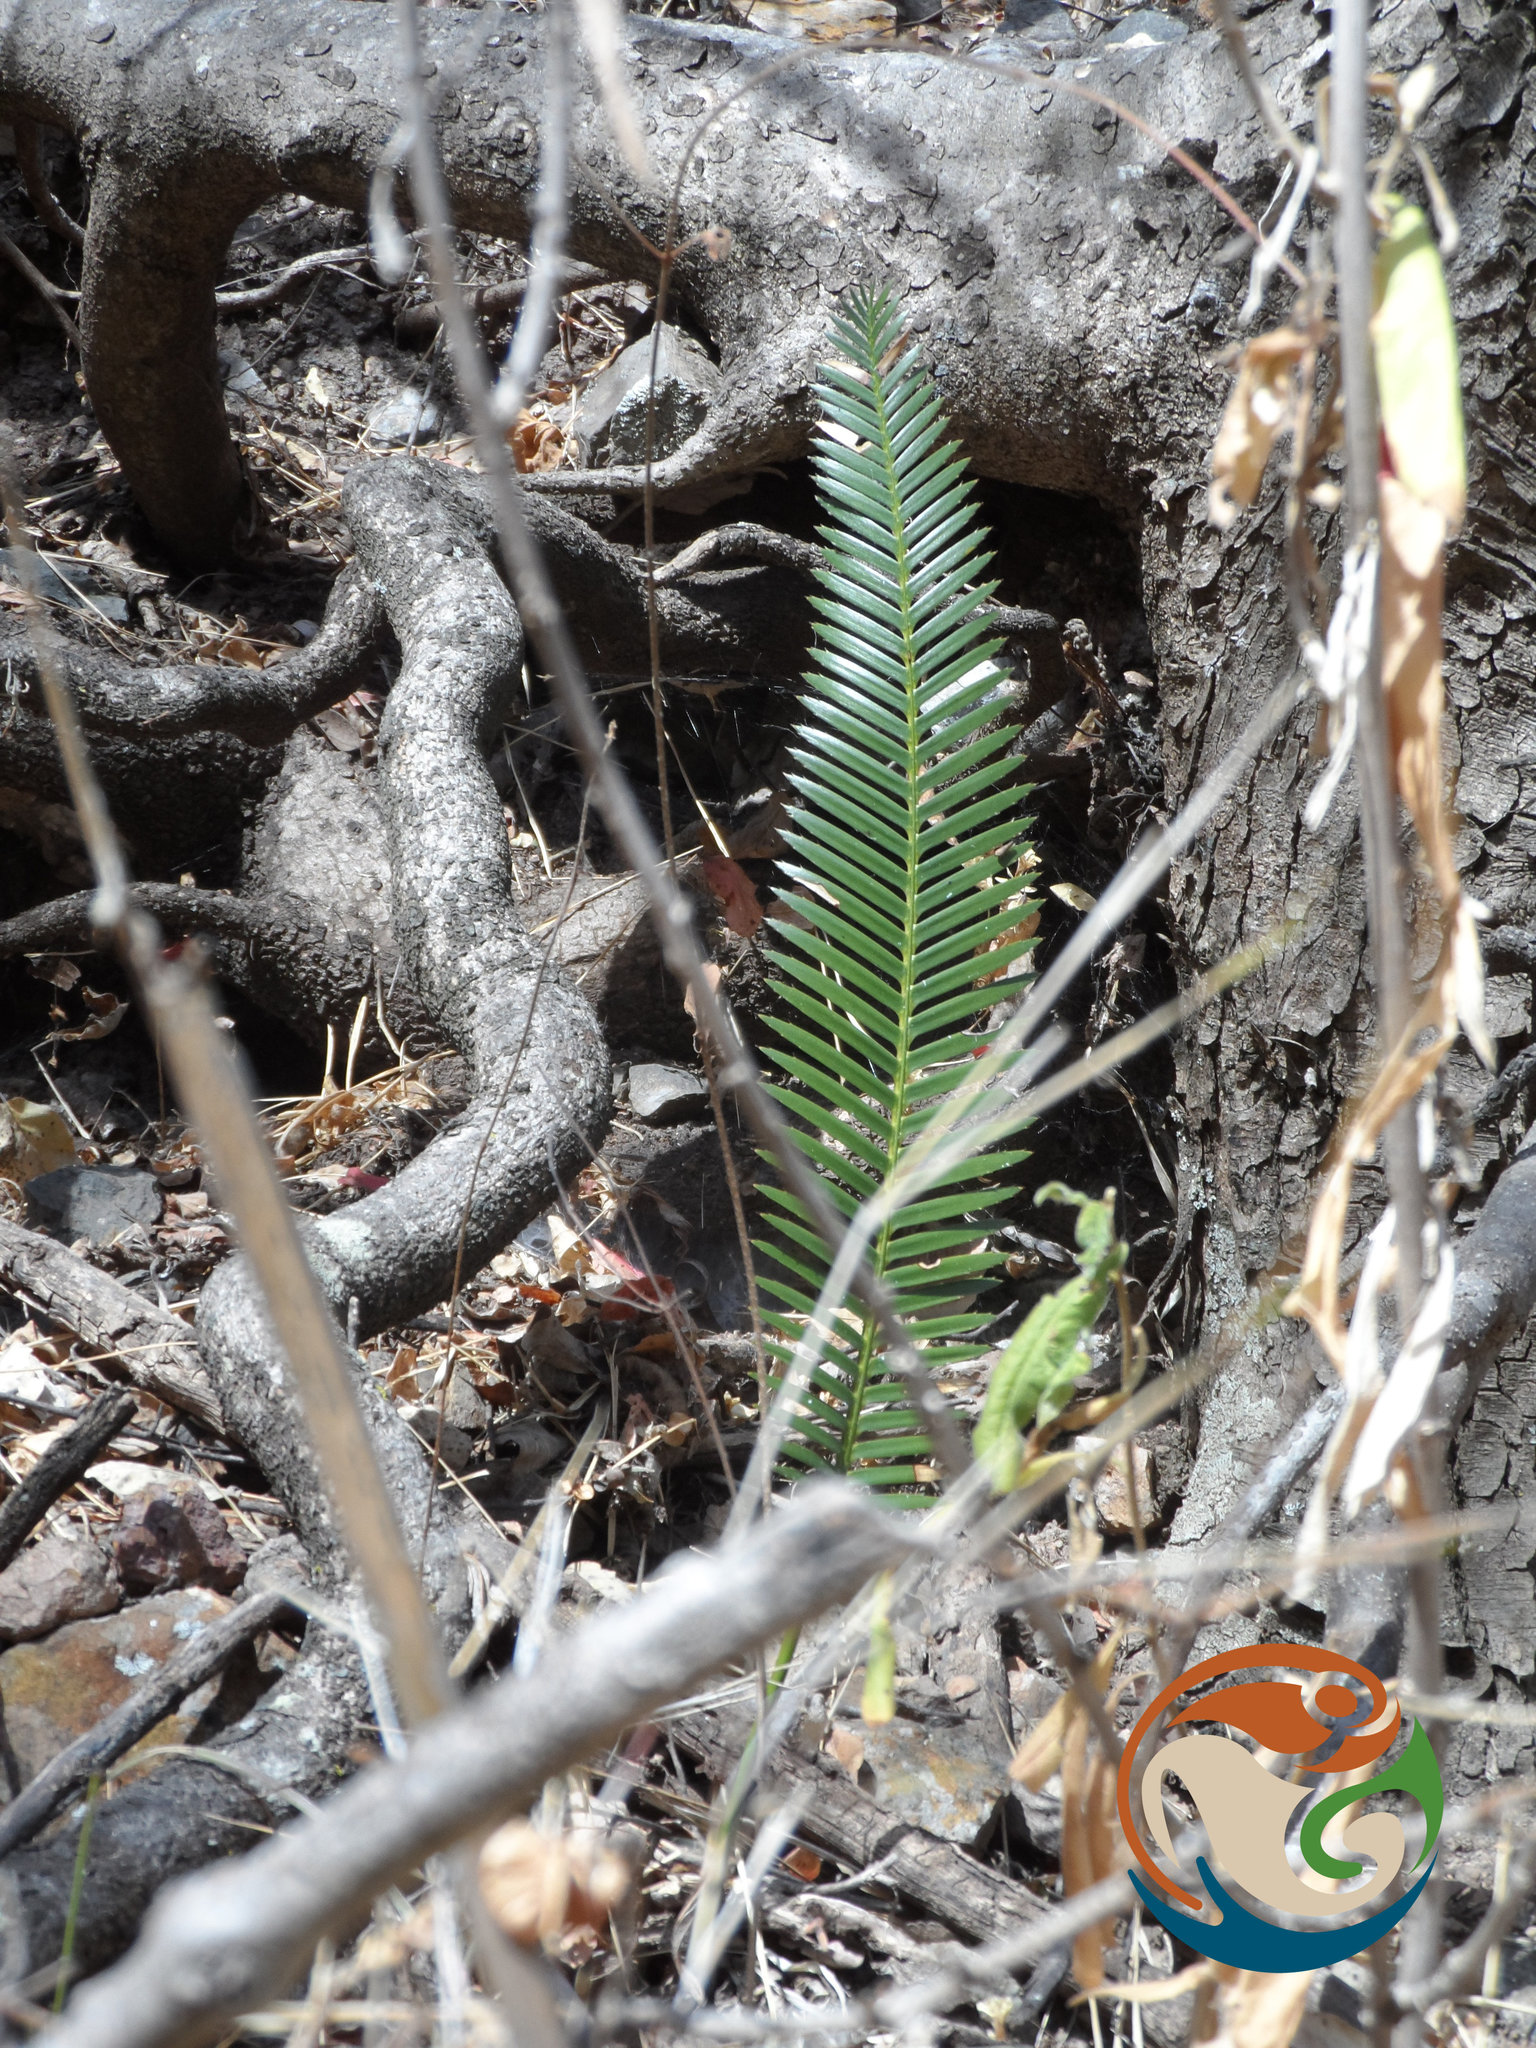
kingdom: Plantae
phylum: Tracheophyta
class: Cycadopsida
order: Cycadales
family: Zamiaceae
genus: Dioon
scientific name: Dioon planifolium
